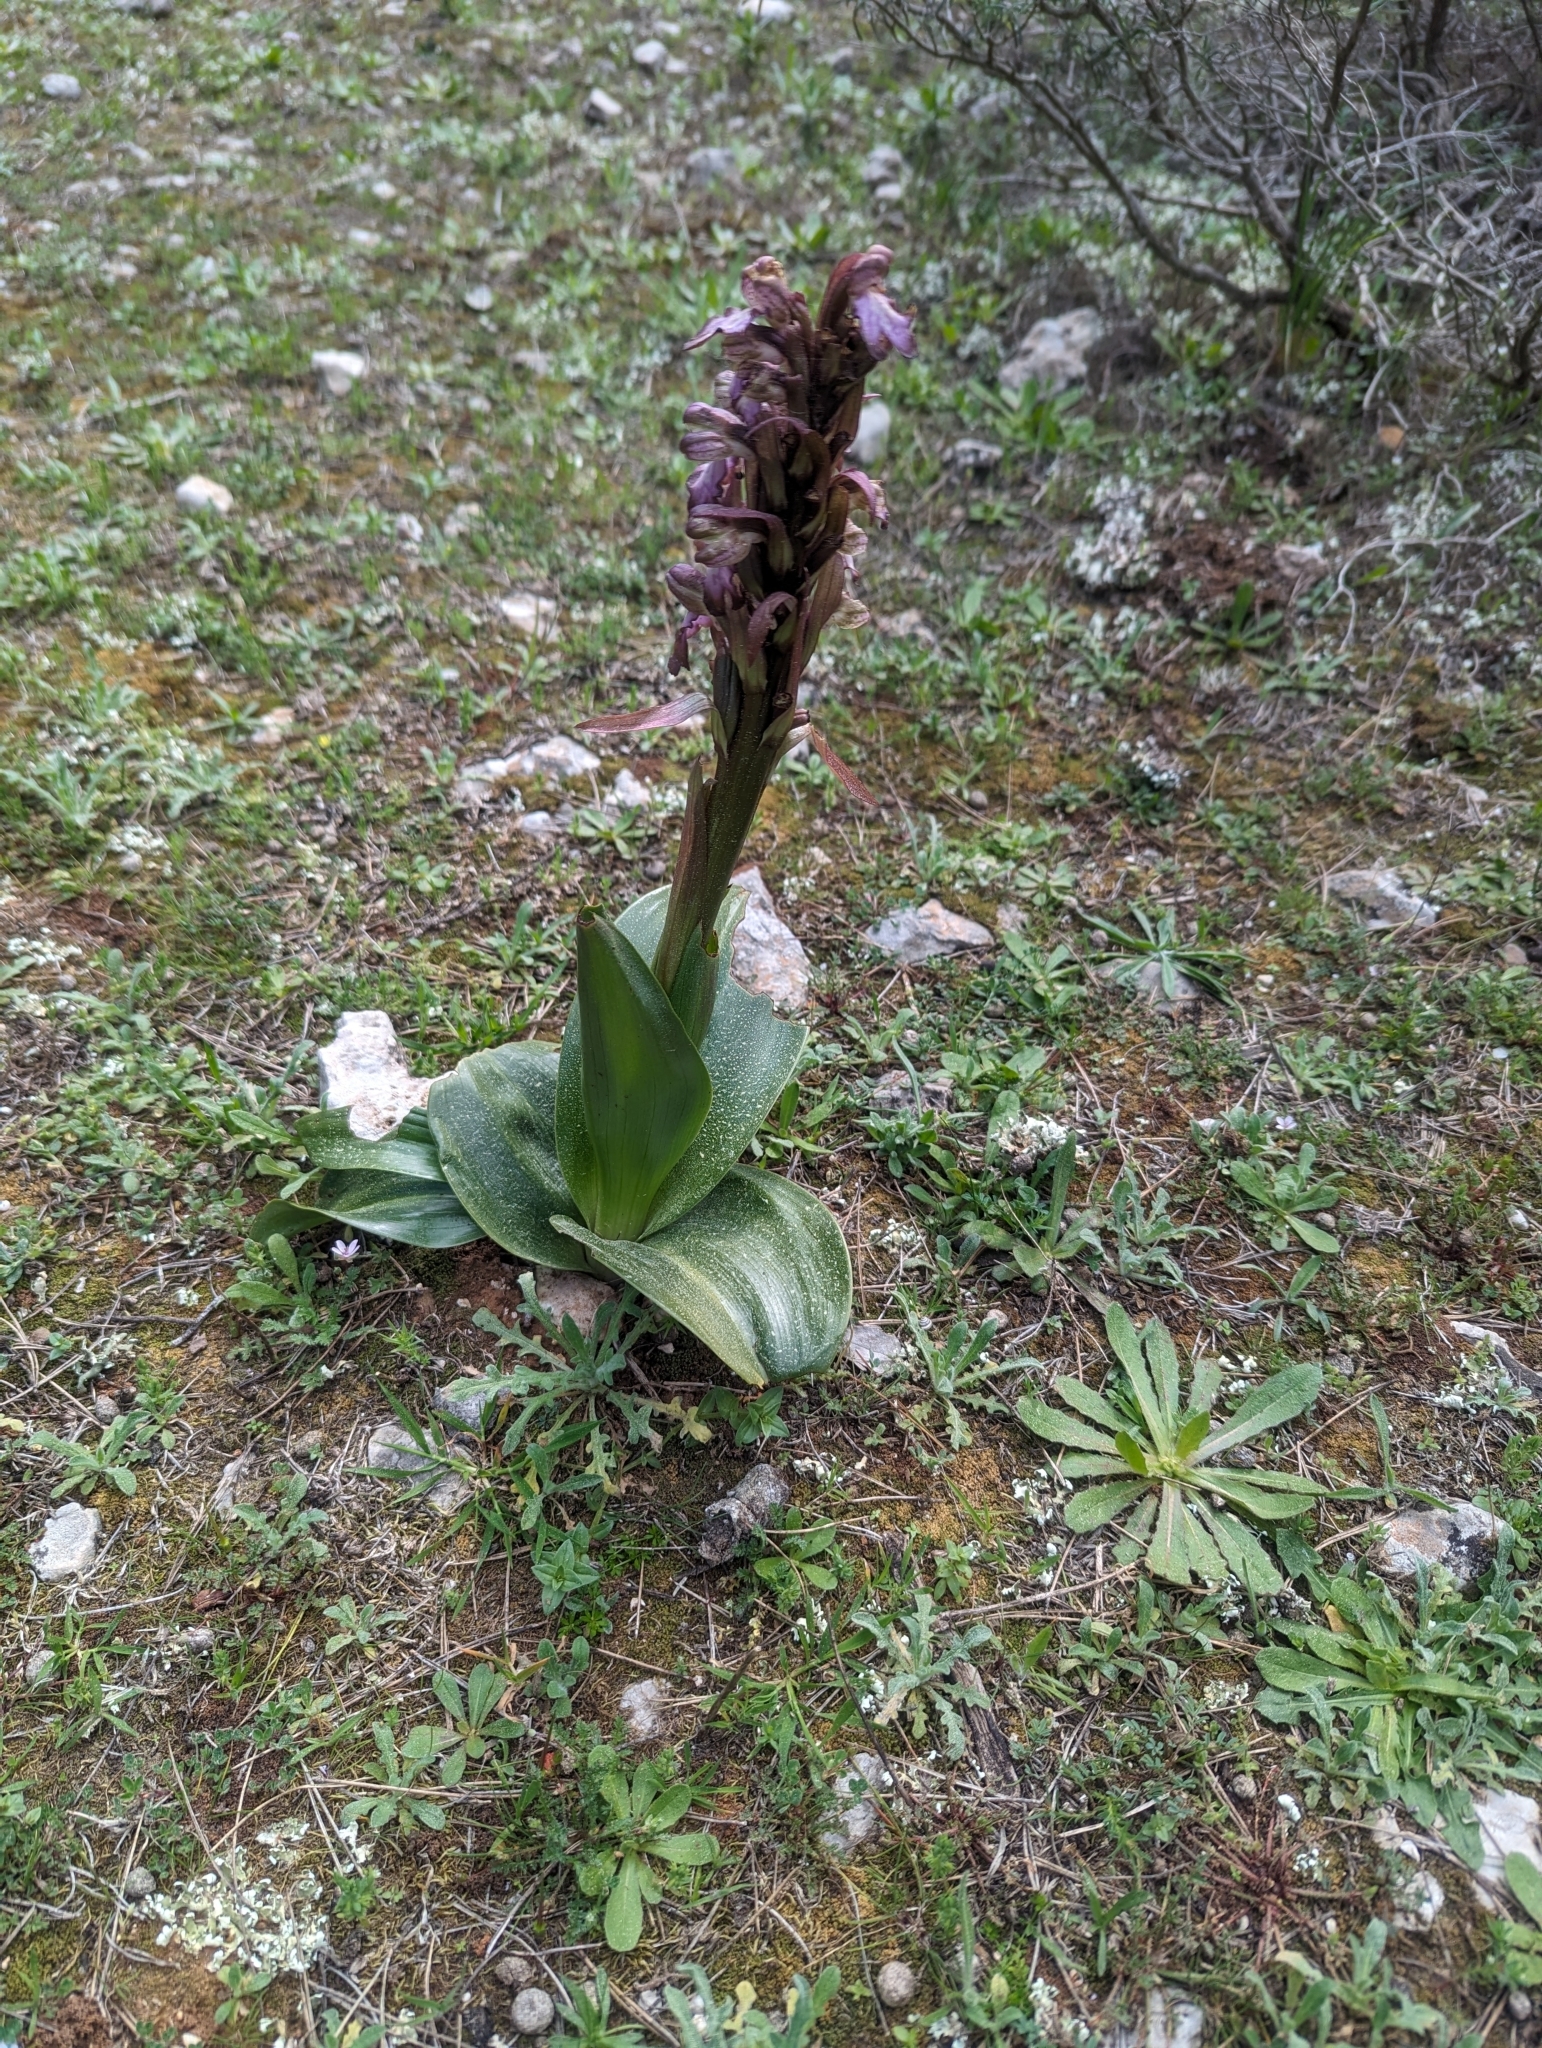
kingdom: Plantae
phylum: Tracheophyta
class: Liliopsida
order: Asparagales
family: Orchidaceae
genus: Himantoglossum
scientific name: Himantoglossum robertianum
